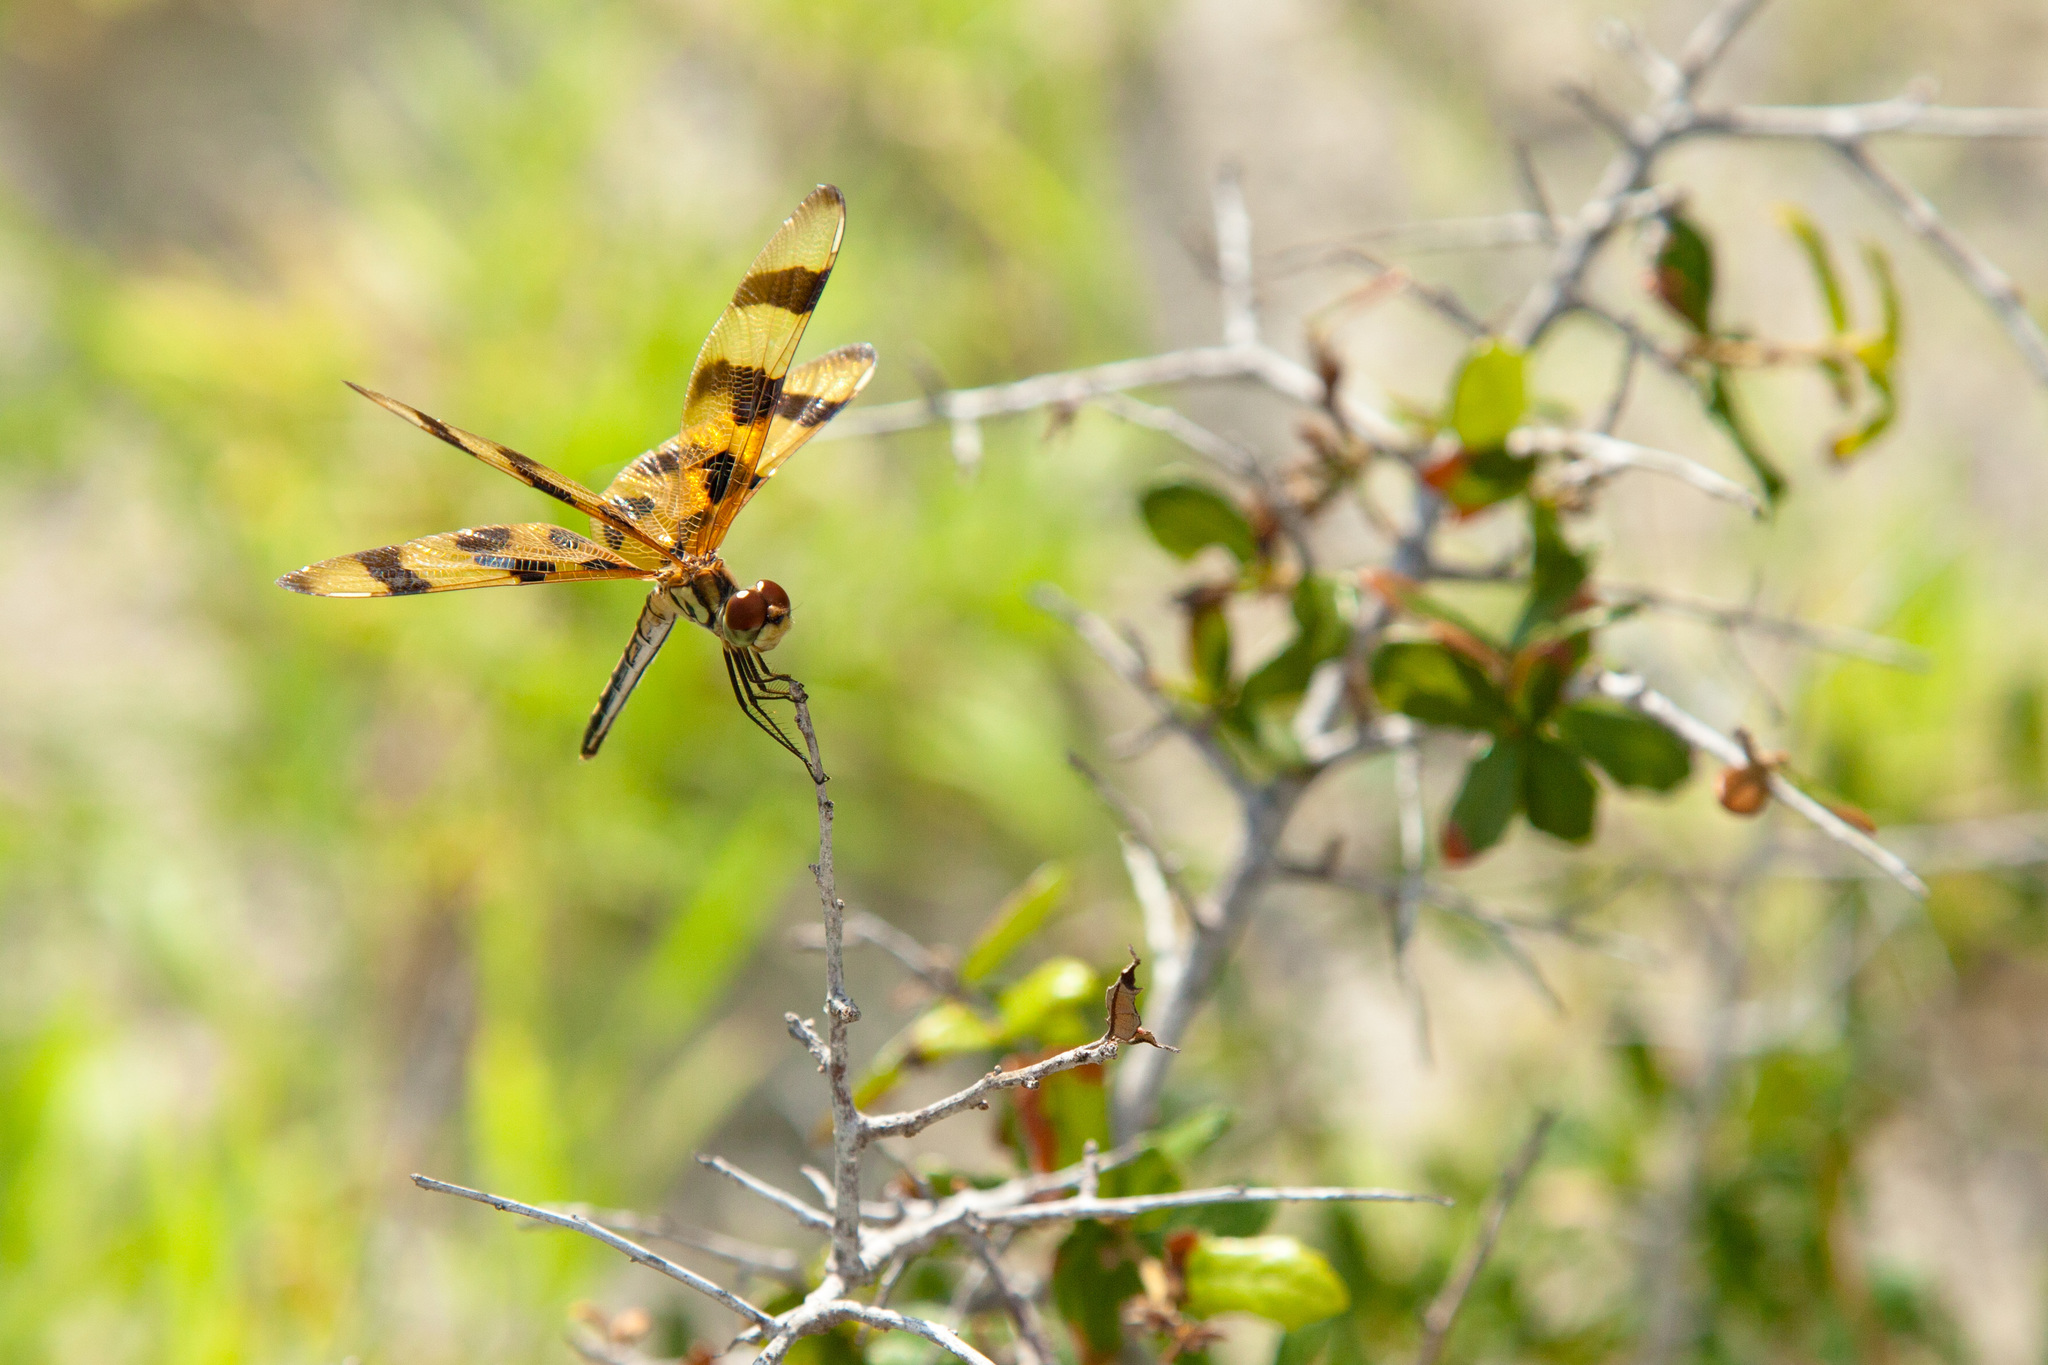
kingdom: Animalia
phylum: Arthropoda
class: Insecta
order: Odonata
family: Libellulidae
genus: Celithemis
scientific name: Celithemis eponina
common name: Halloween pennant
